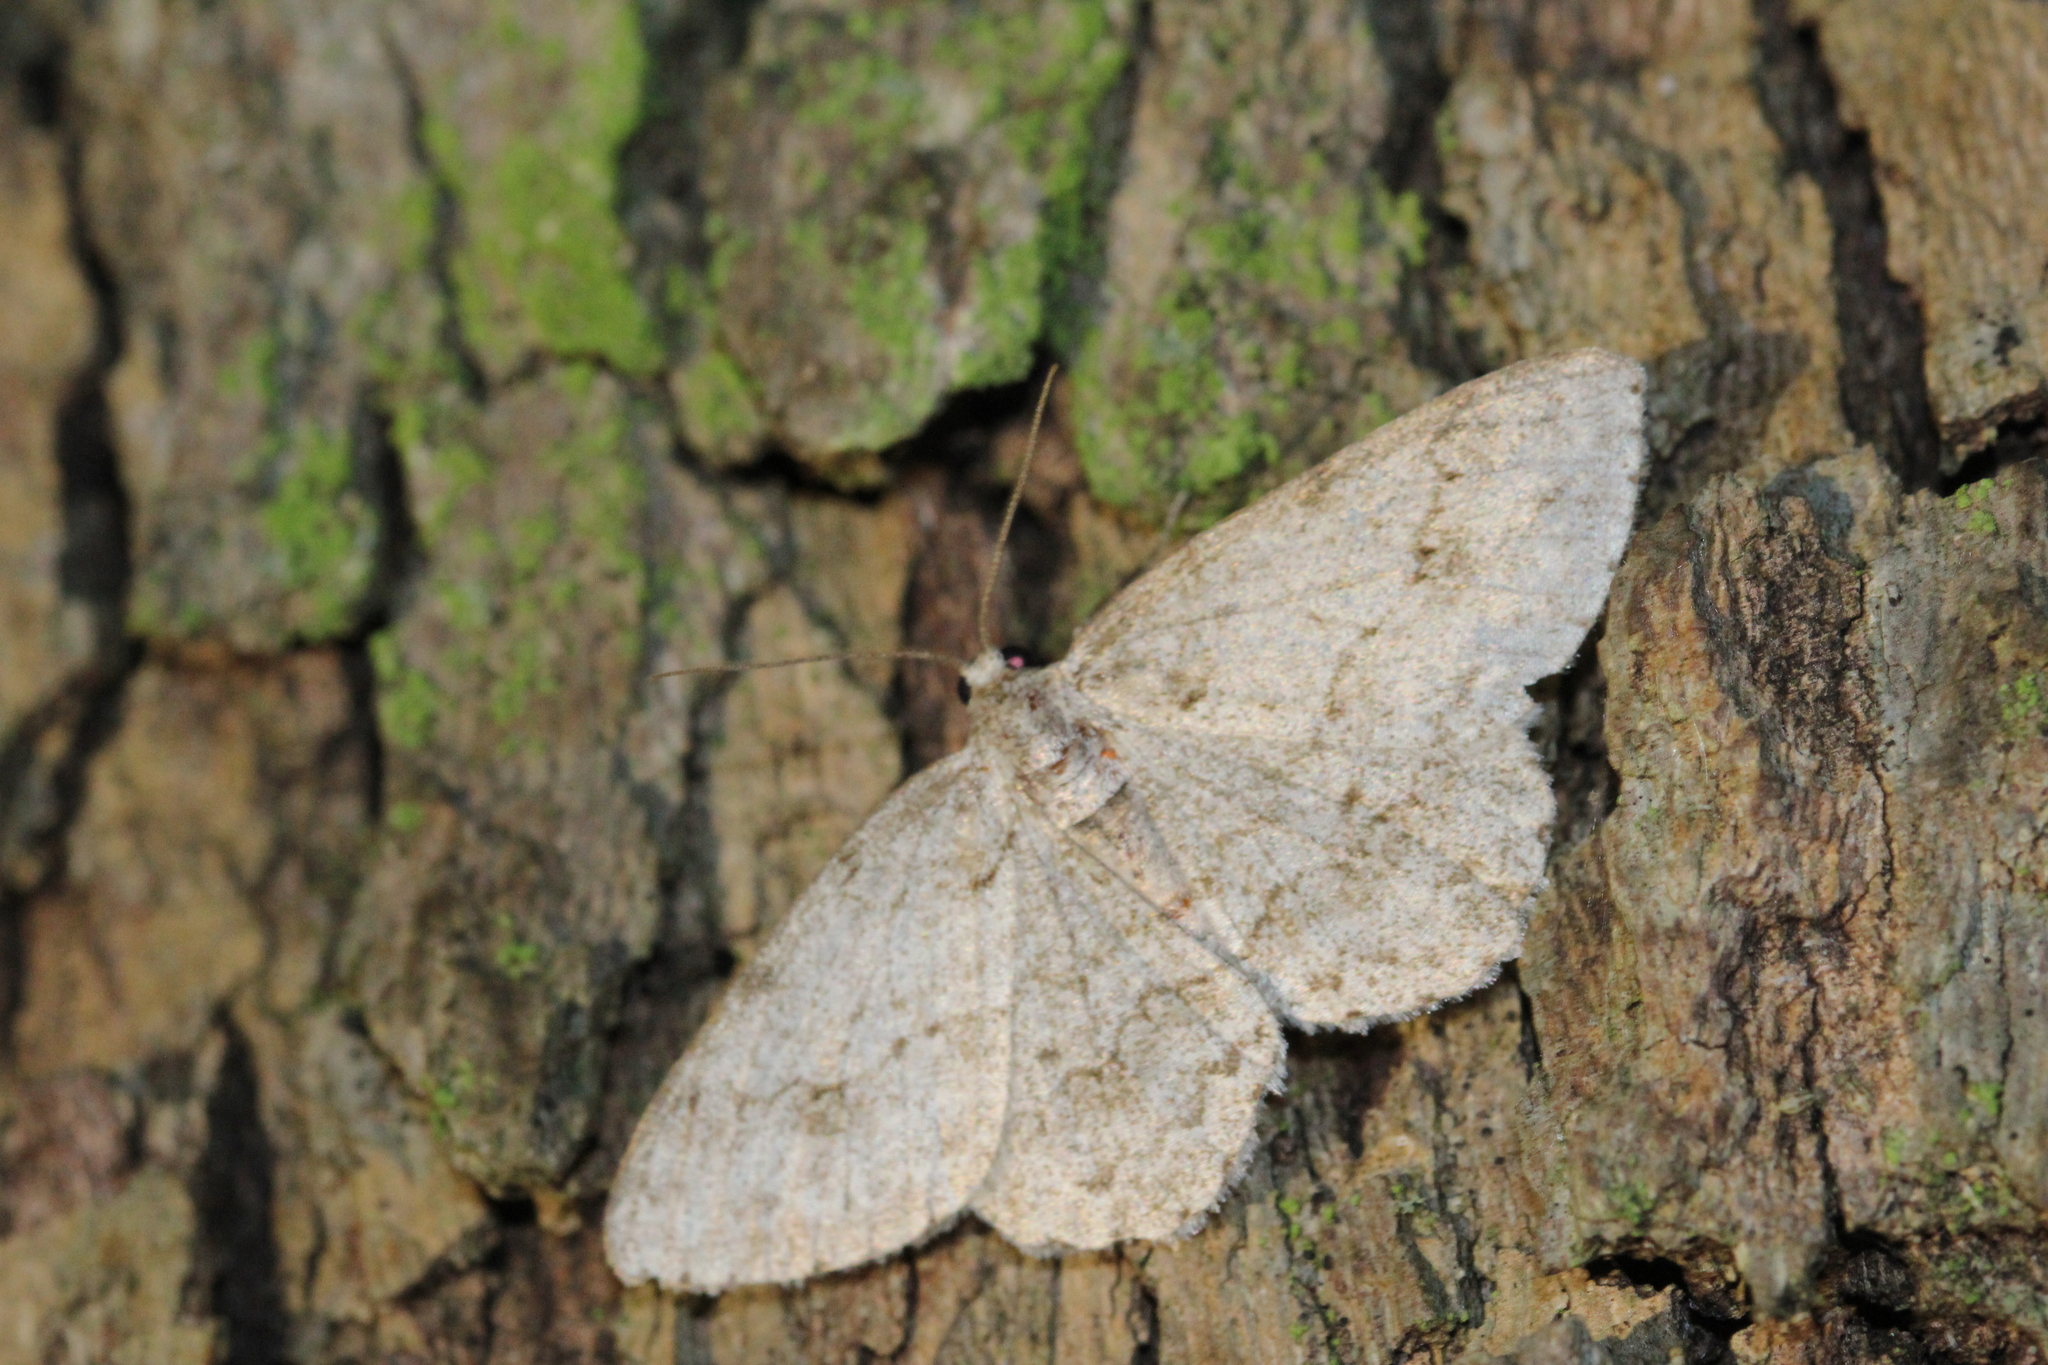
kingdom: Animalia
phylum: Arthropoda
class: Insecta
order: Lepidoptera
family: Geometridae
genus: Ectropis
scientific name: Ectropis crepuscularia
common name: Engrailed
